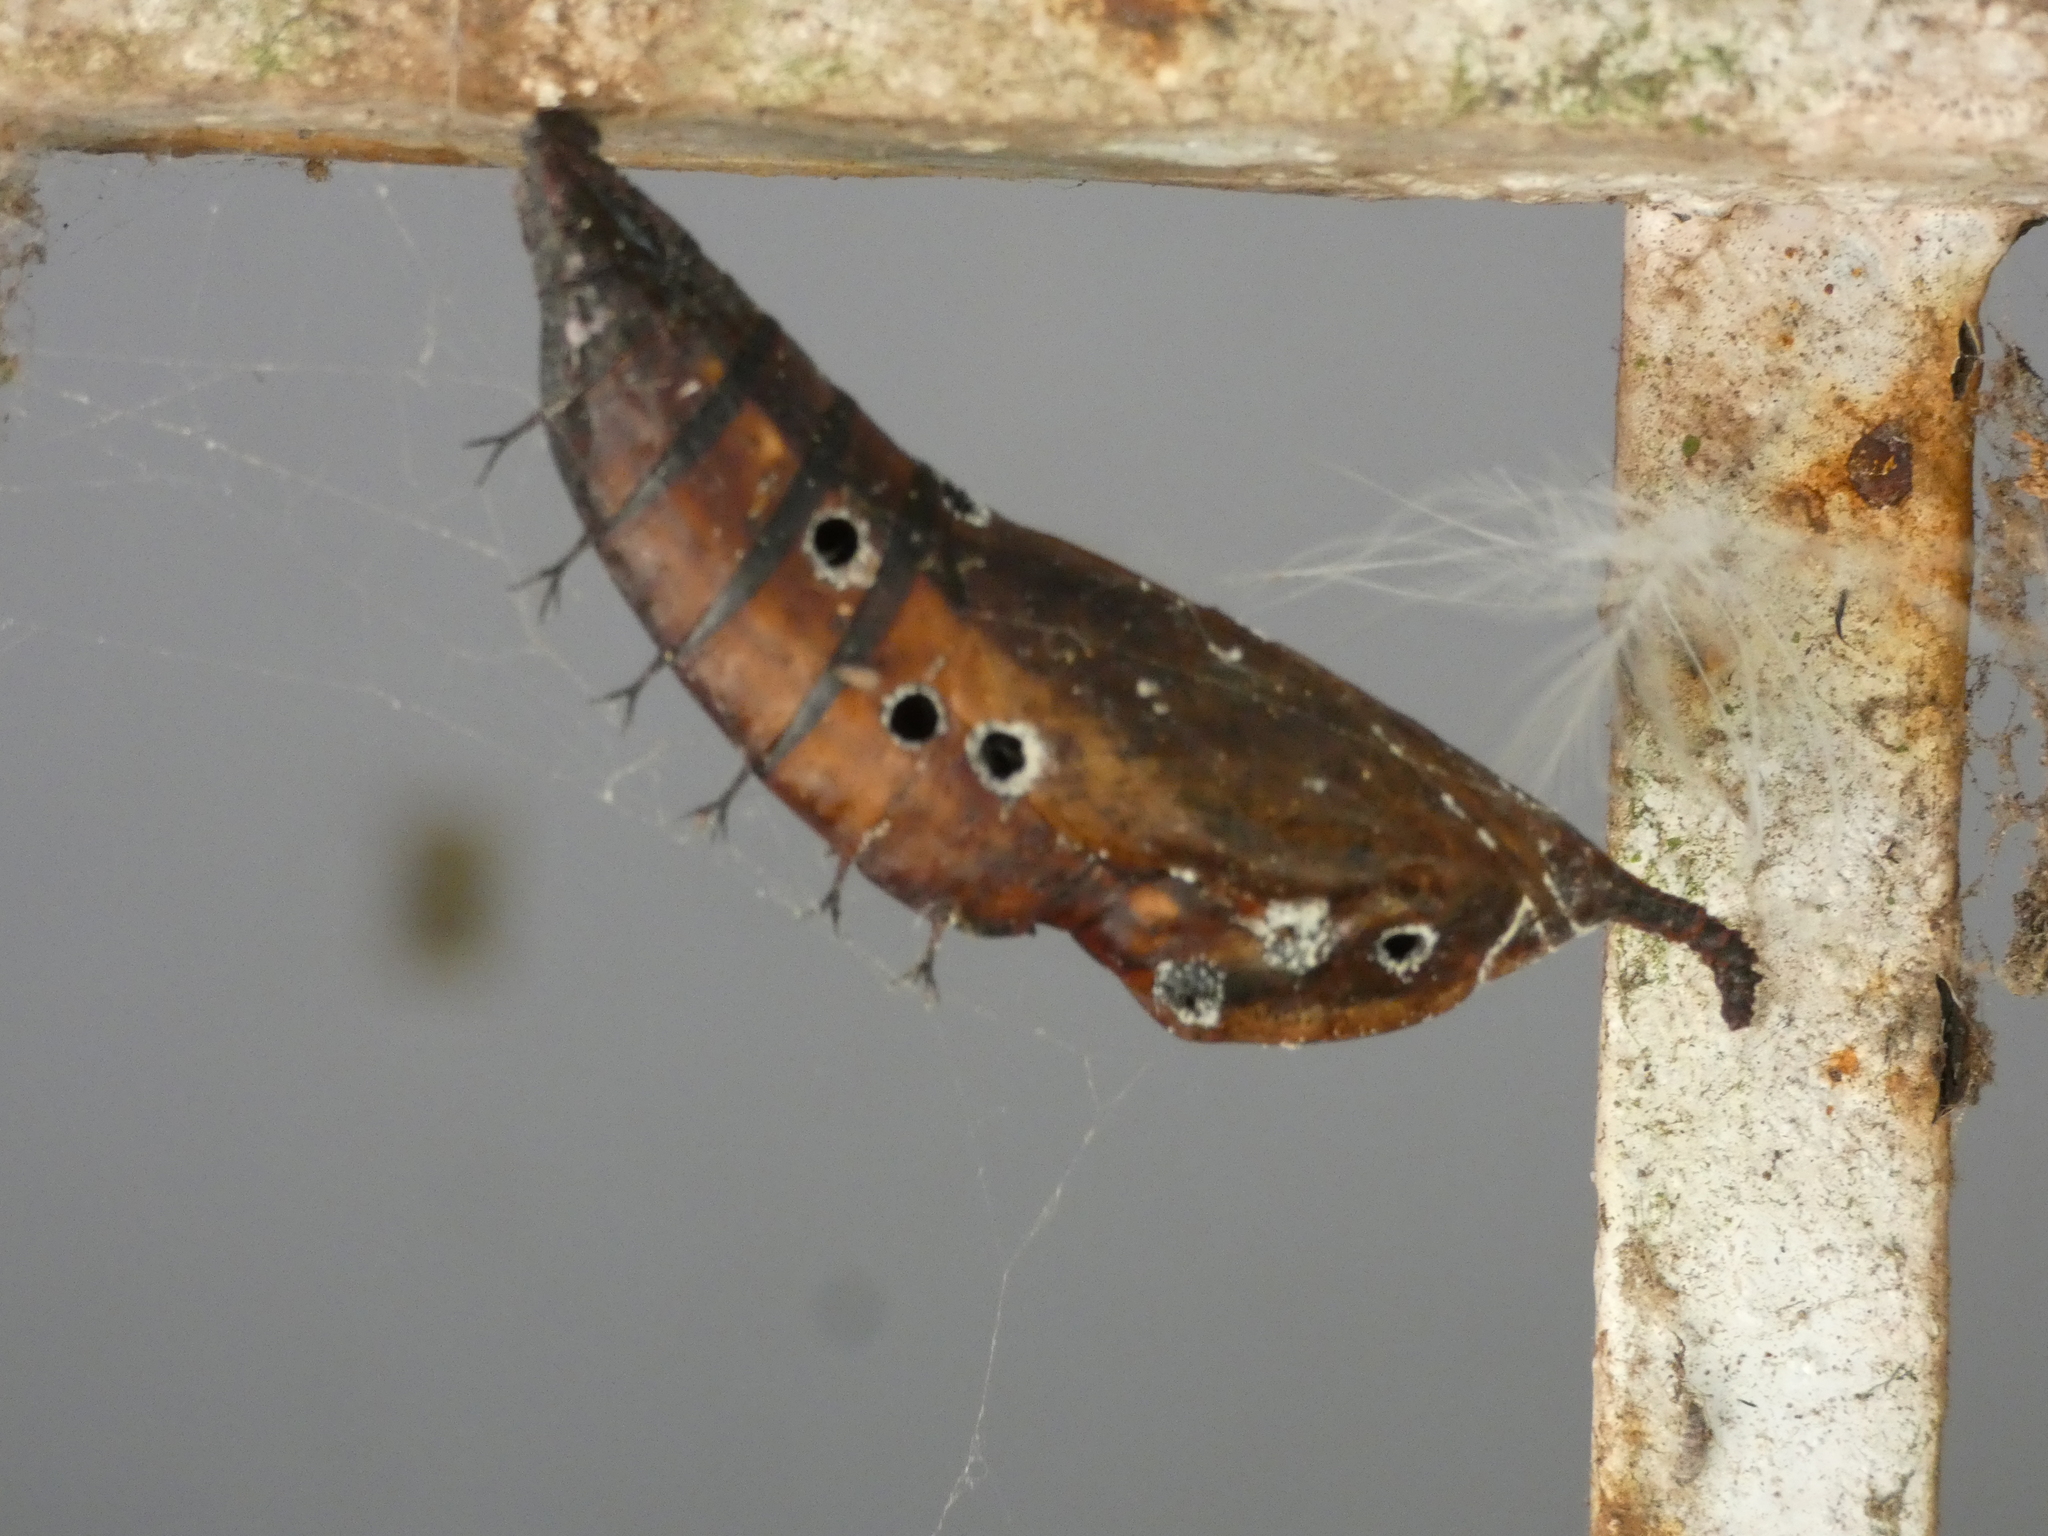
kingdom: Animalia
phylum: Arthropoda
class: Insecta
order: Lepidoptera
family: Nymphalidae
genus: Historis
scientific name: Historis odius
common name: Orion cecropian
